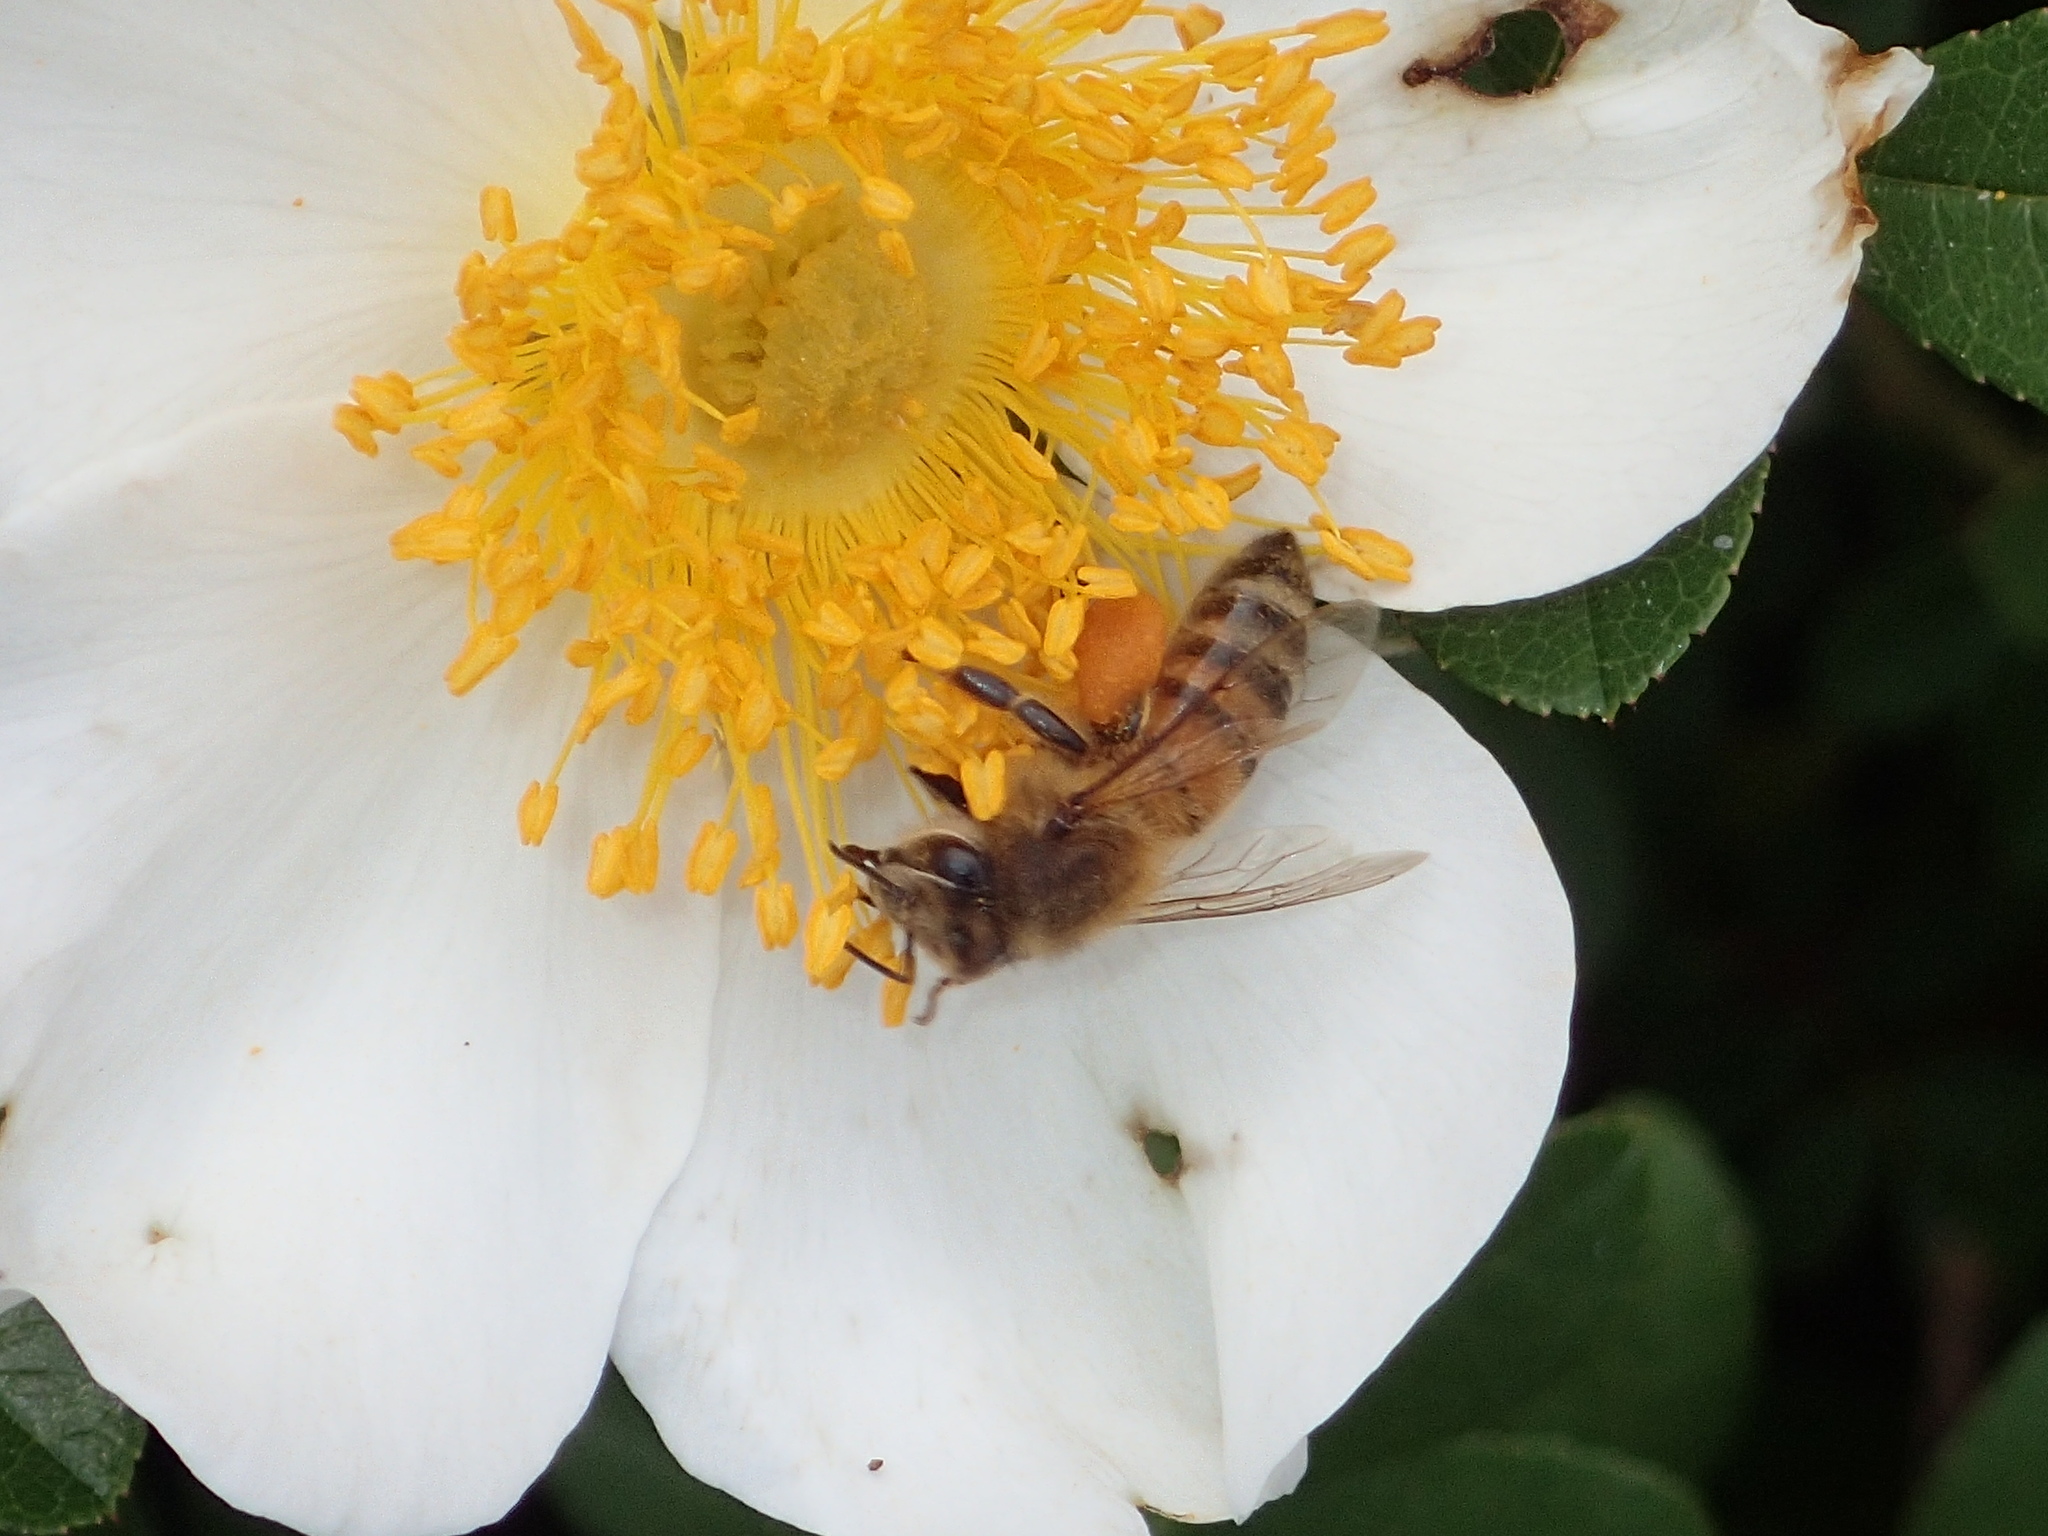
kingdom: Animalia
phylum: Arthropoda
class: Insecta
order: Hymenoptera
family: Apidae
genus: Apis
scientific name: Apis mellifera
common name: Honey bee
